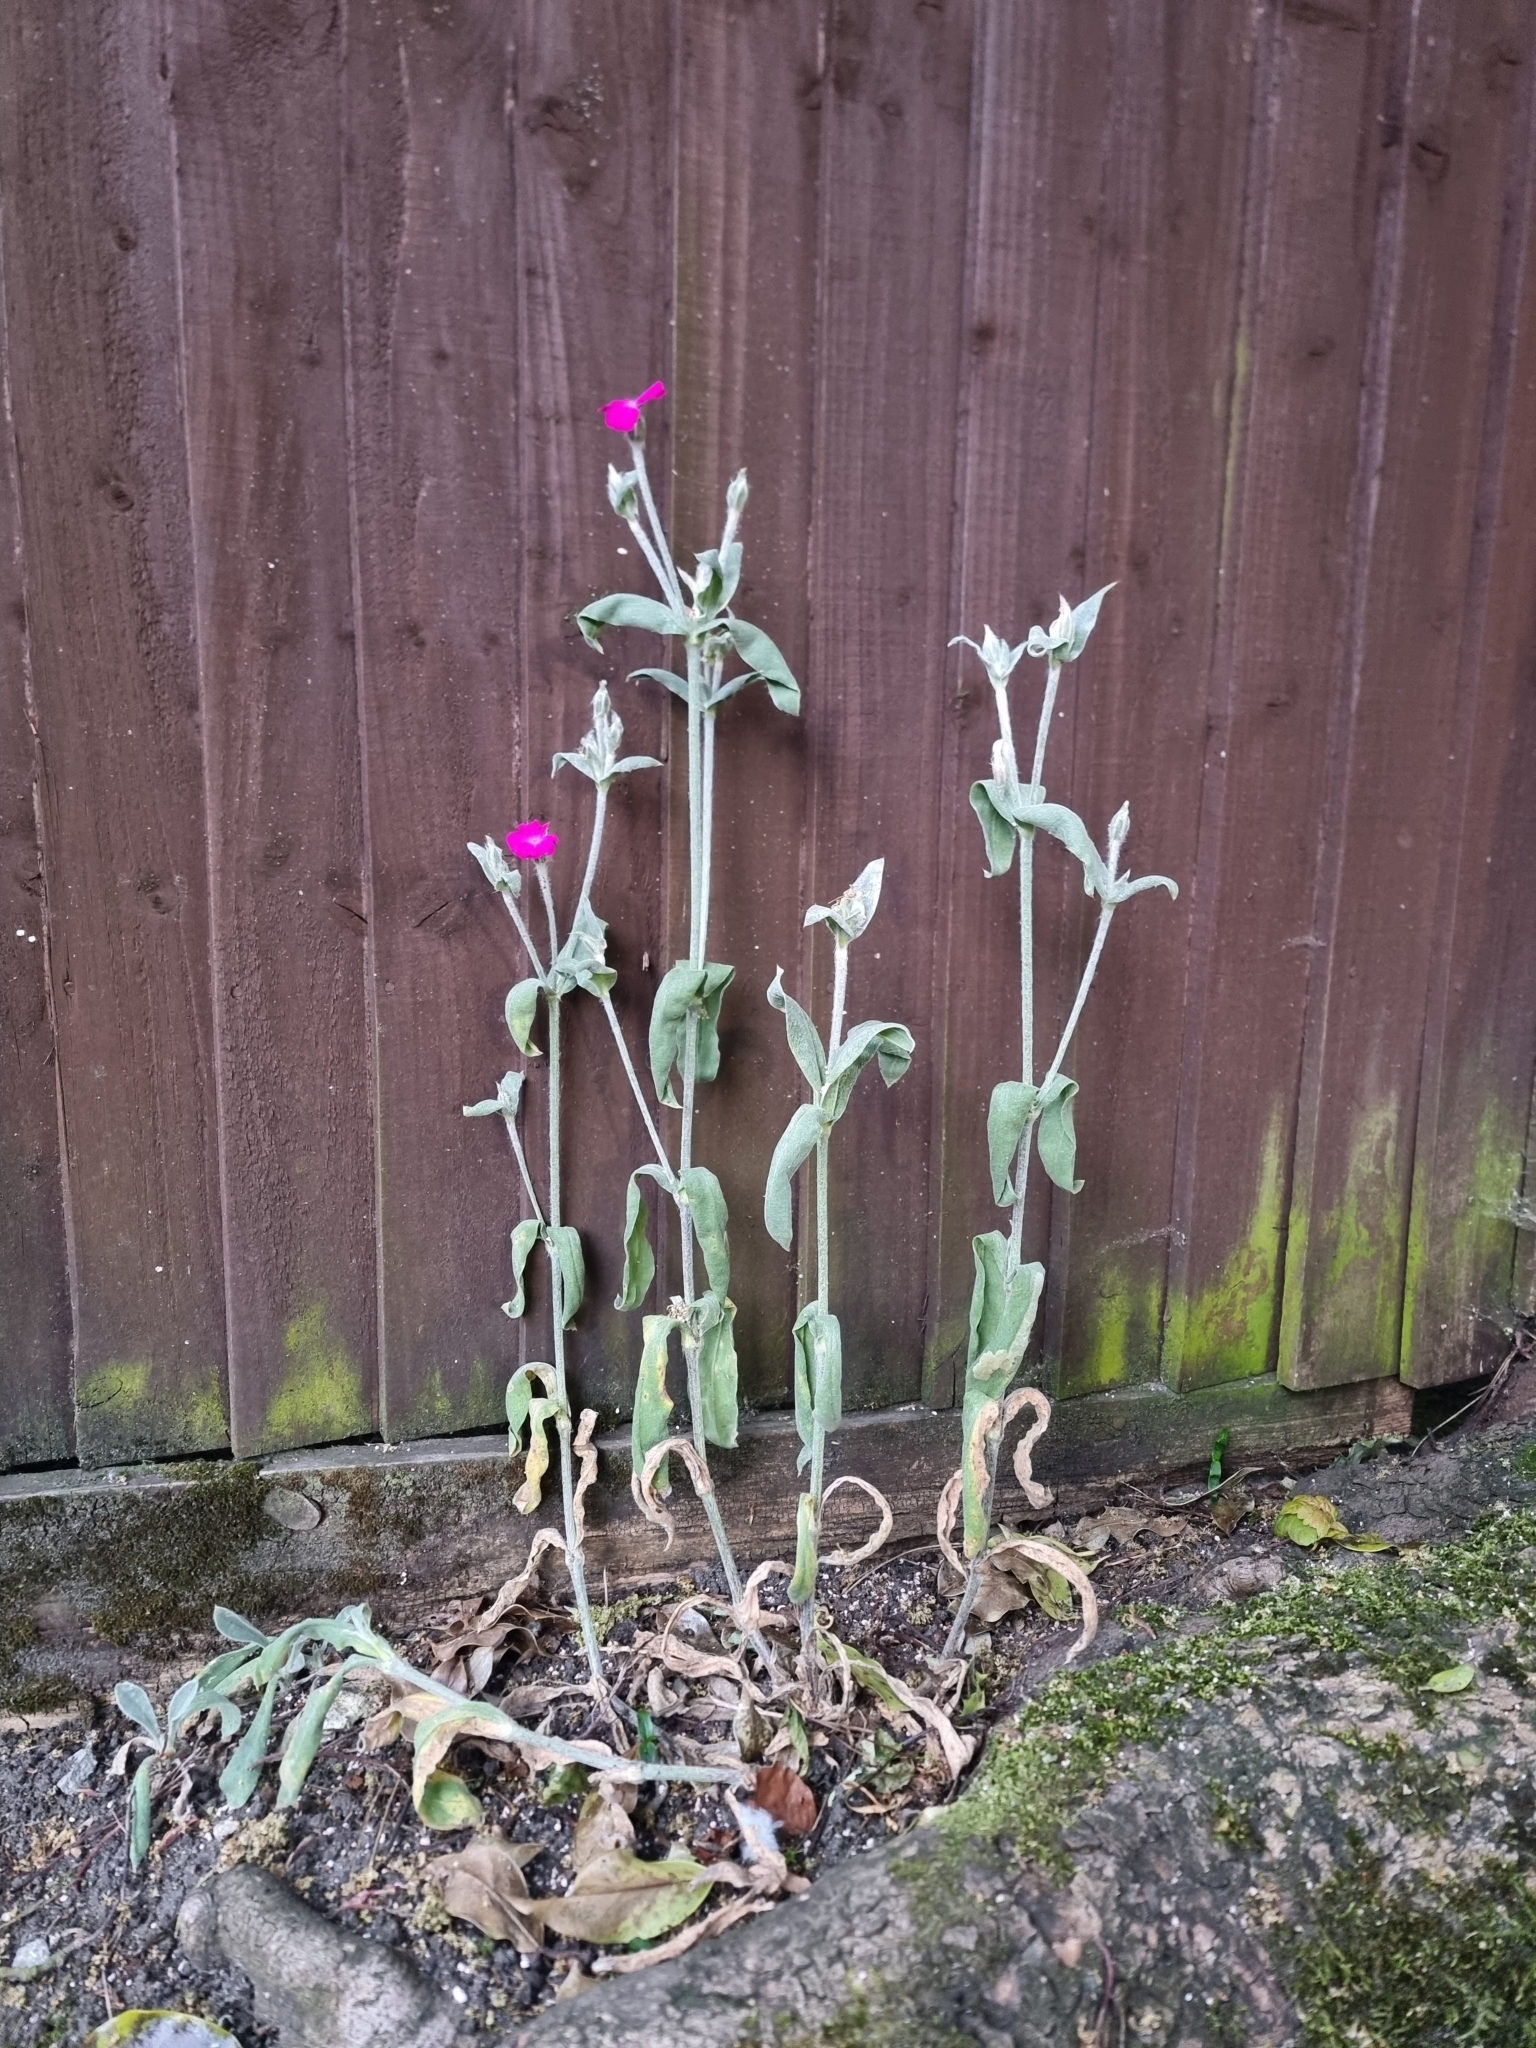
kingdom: Plantae
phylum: Tracheophyta
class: Magnoliopsida
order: Caryophyllales
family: Caryophyllaceae
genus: Silene
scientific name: Silene coronaria
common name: Rose campion
